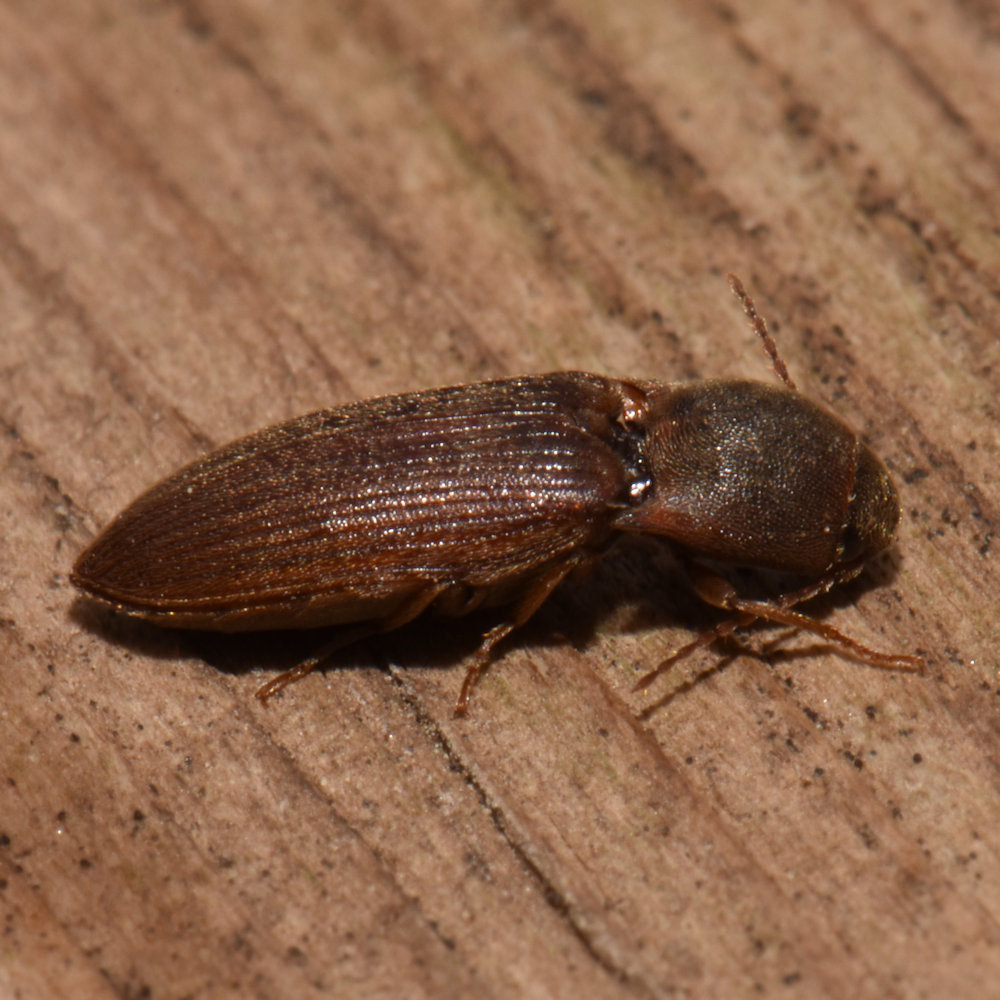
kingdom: Animalia
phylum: Arthropoda
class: Insecta
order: Coleoptera
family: Elateridae
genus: Agriotes
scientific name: Agriotes mancus
